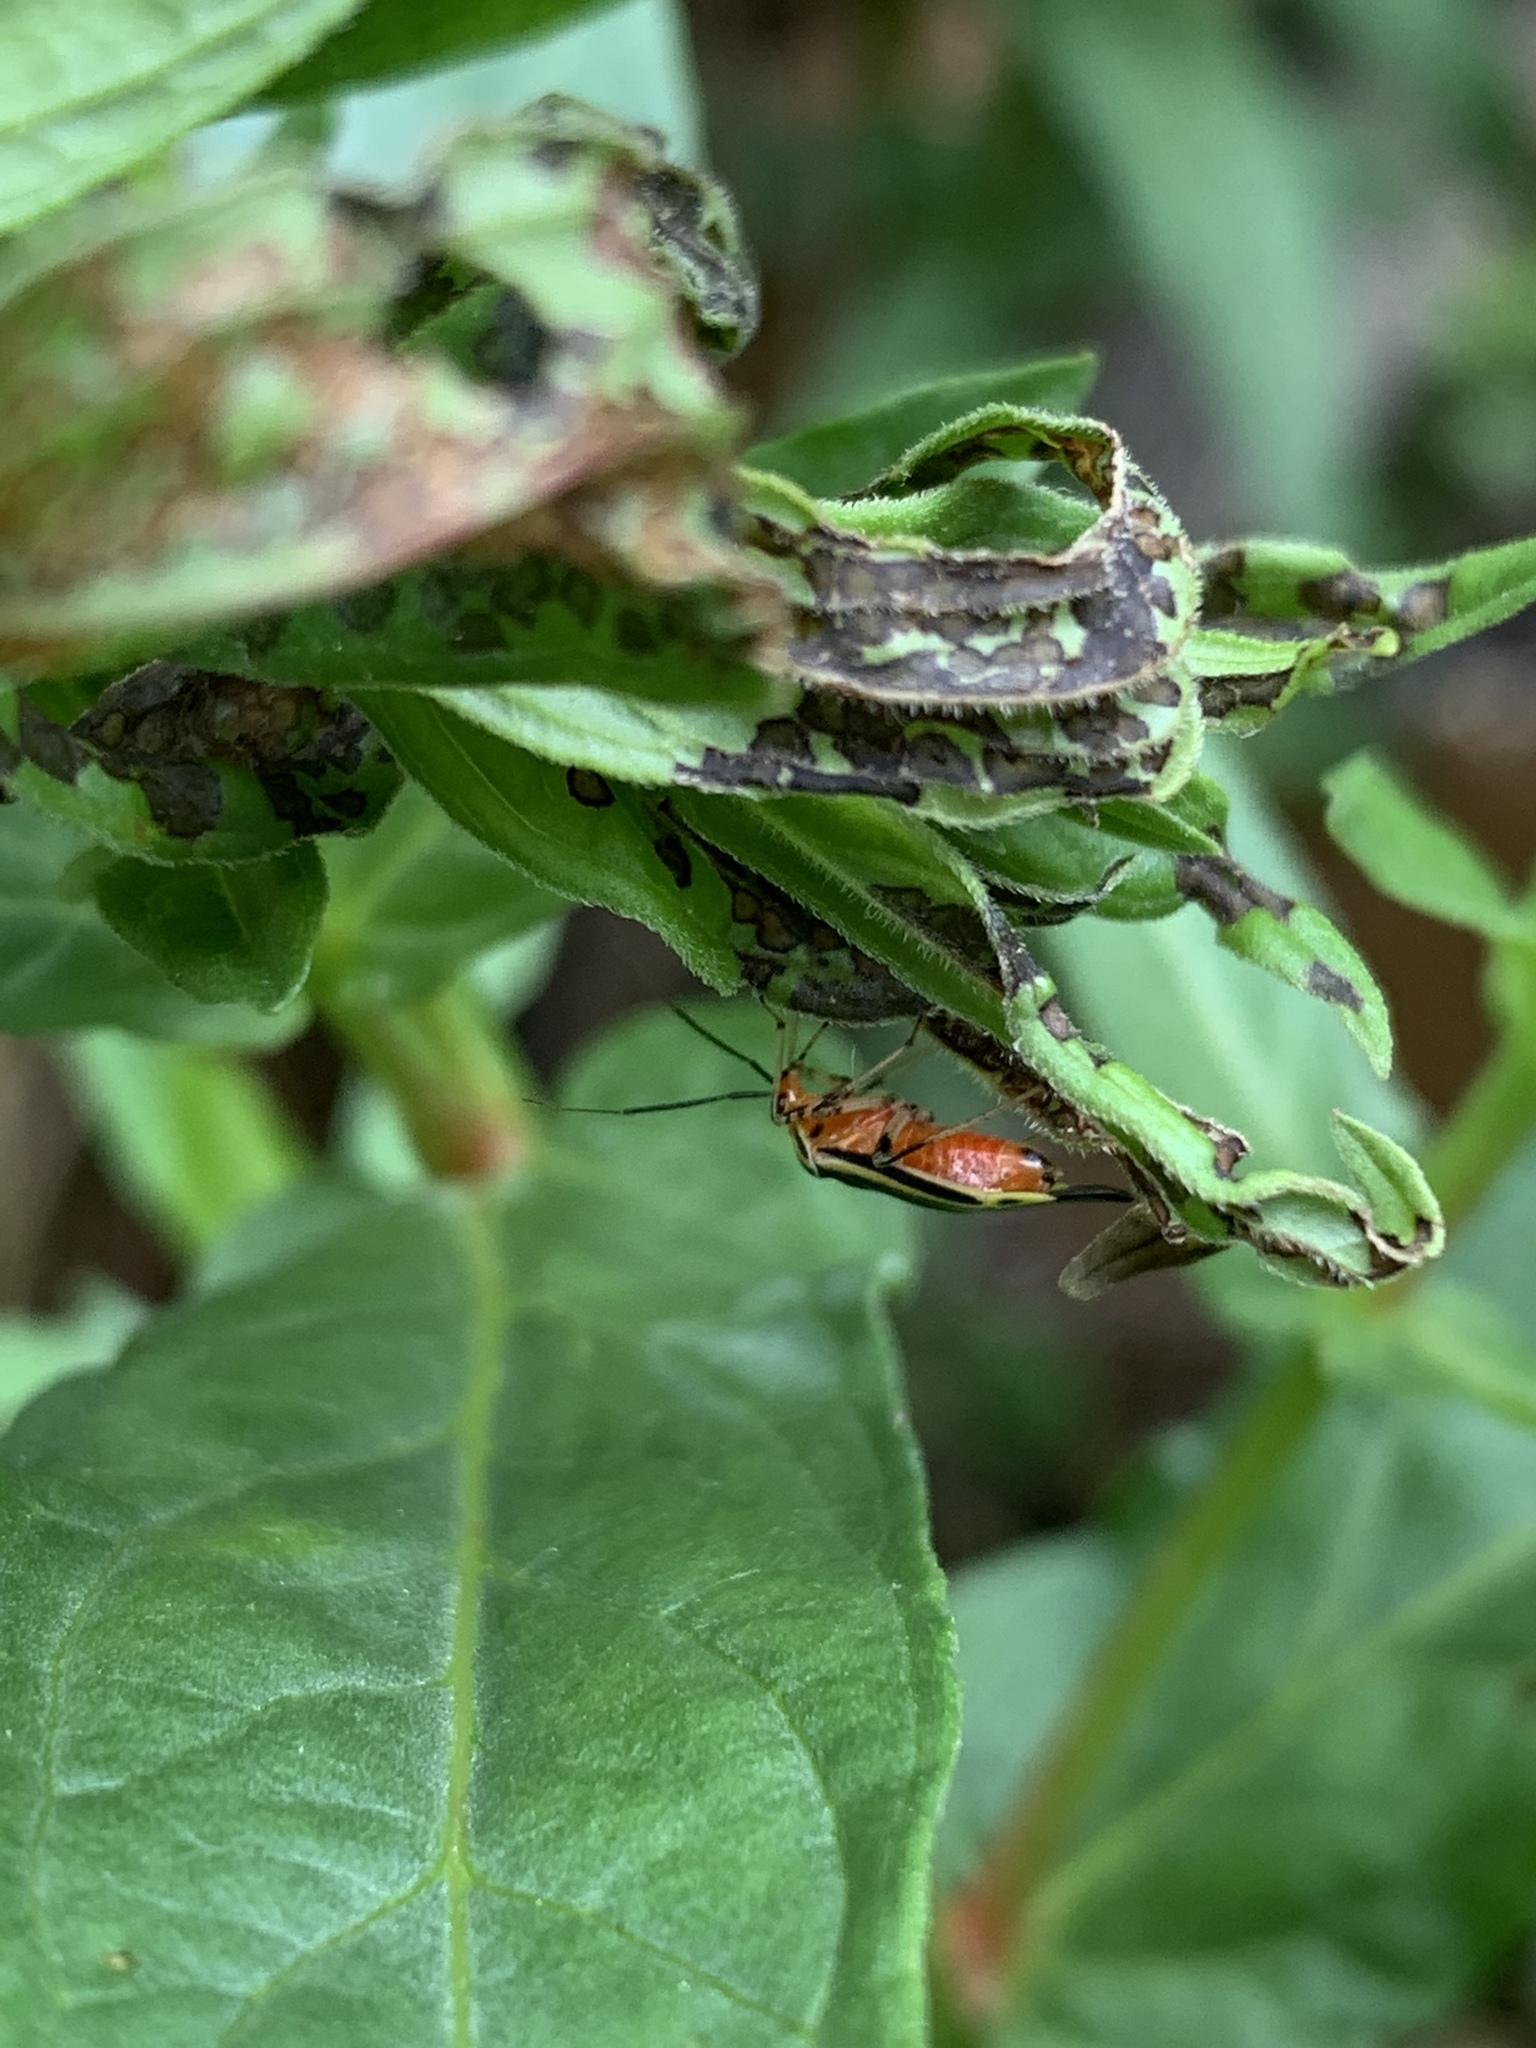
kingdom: Animalia
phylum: Arthropoda
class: Insecta
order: Hemiptera
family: Miridae
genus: Poecilocapsus
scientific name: Poecilocapsus lineatus
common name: Four-lined plant bug
